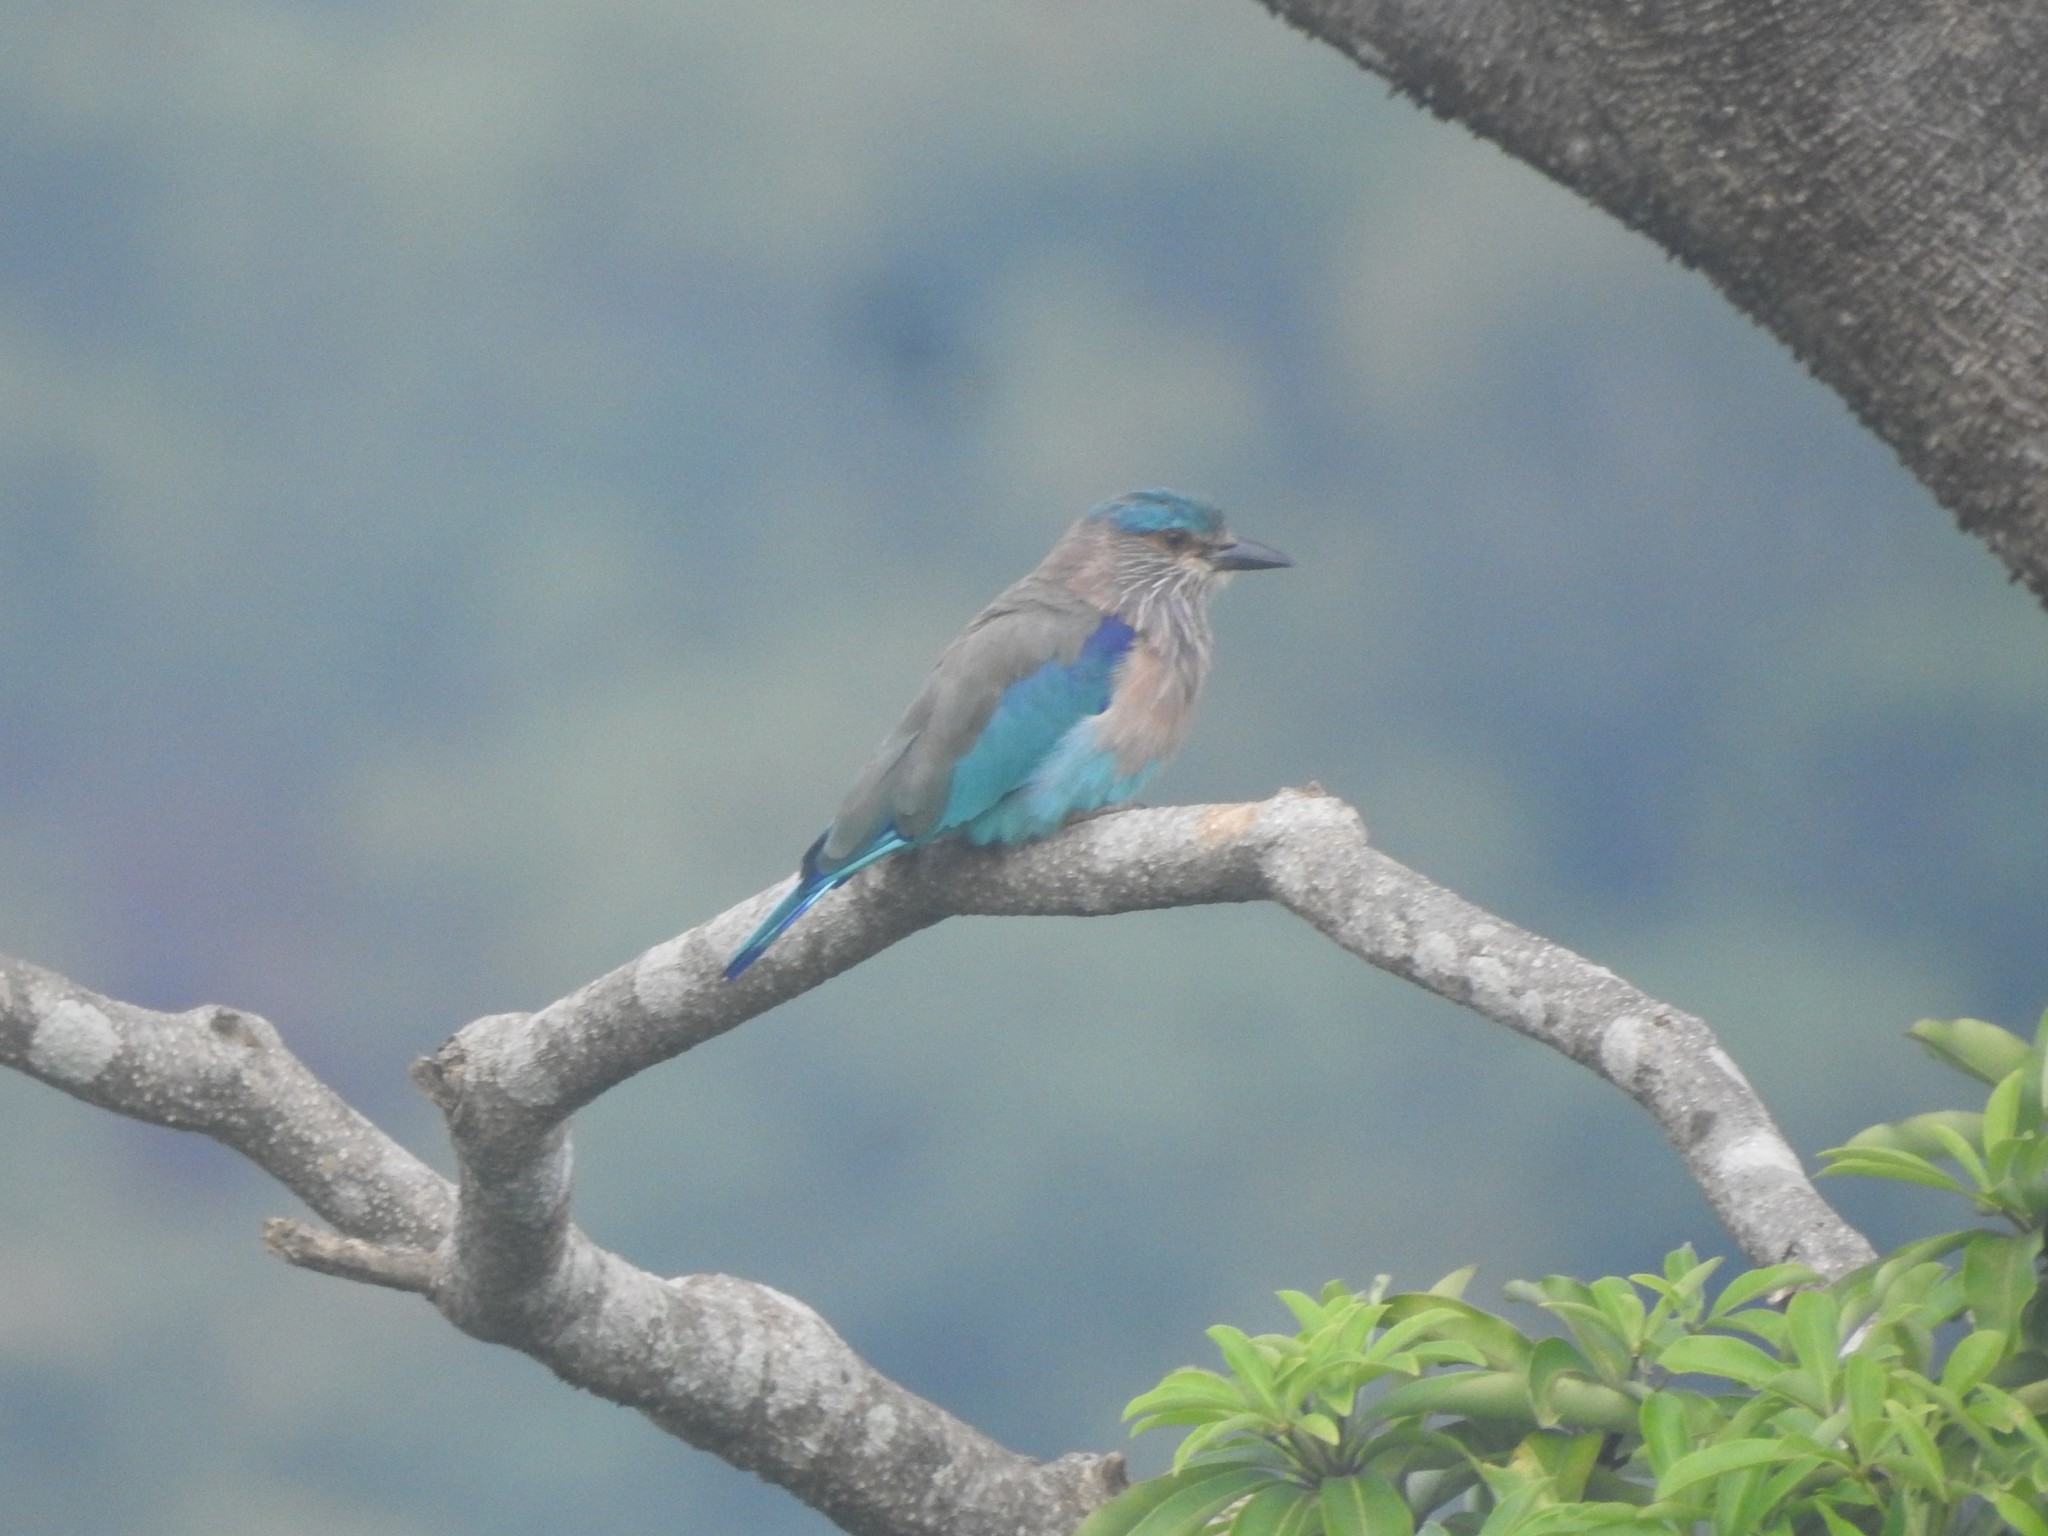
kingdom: Animalia
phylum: Chordata
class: Aves
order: Coraciiformes
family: Coraciidae
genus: Coracias
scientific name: Coracias benghalensis
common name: Indian roller
